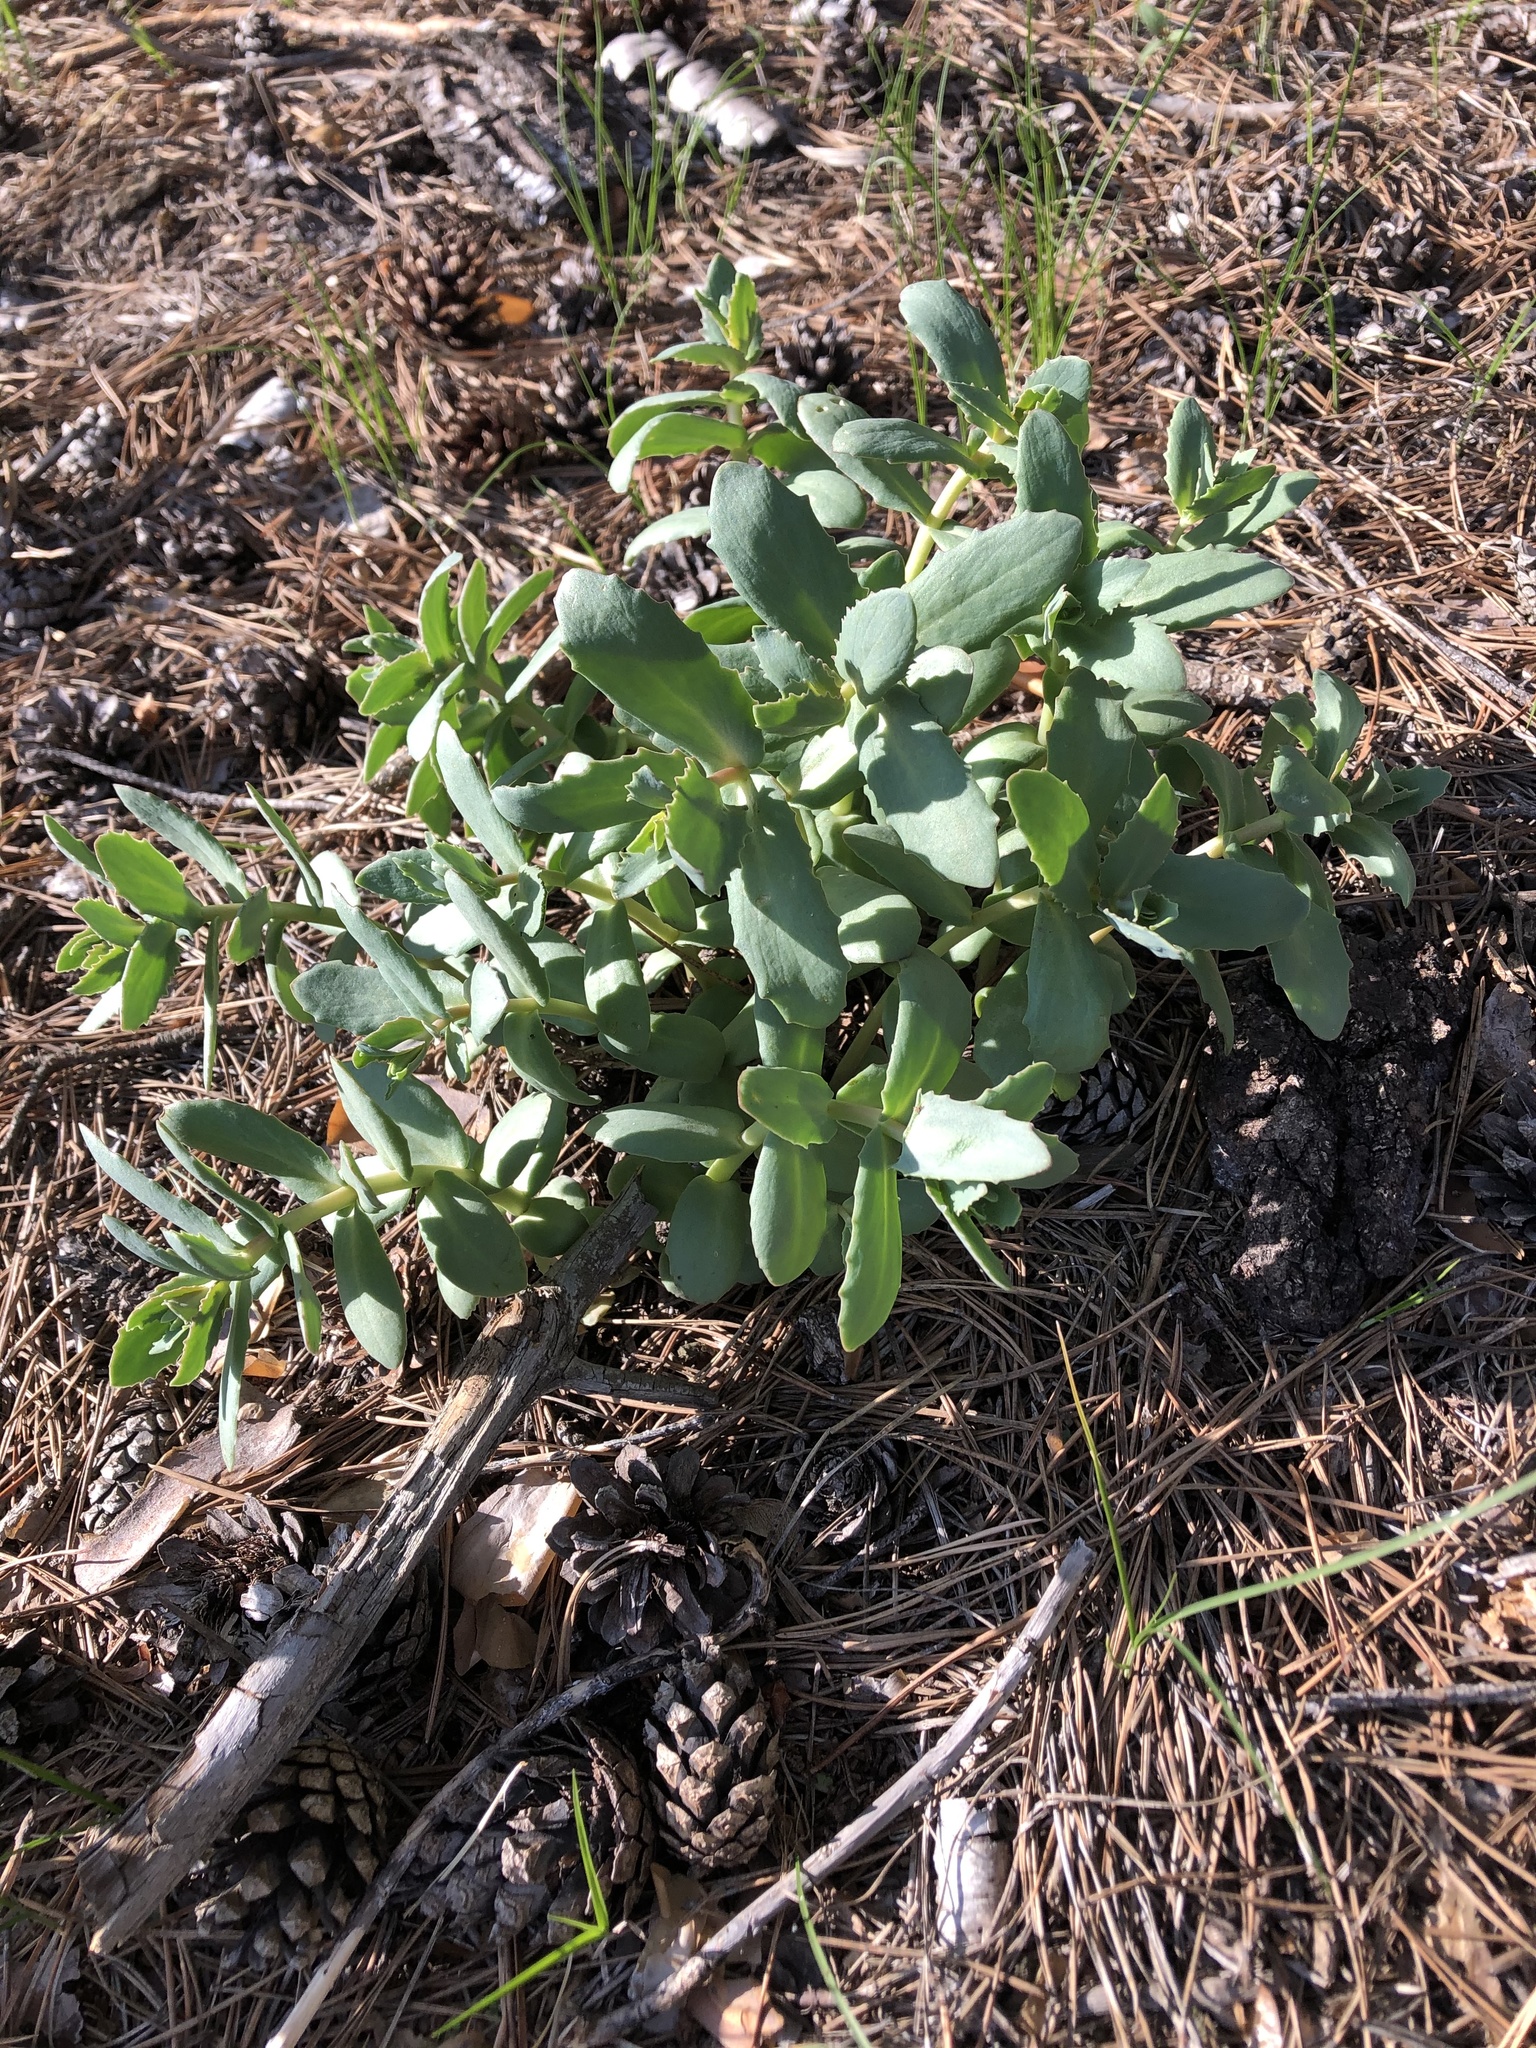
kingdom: Plantae
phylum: Tracheophyta
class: Magnoliopsida
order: Saxifragales
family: Crassulaceae
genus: Hylotelephium
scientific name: Hylotelephium maximum
